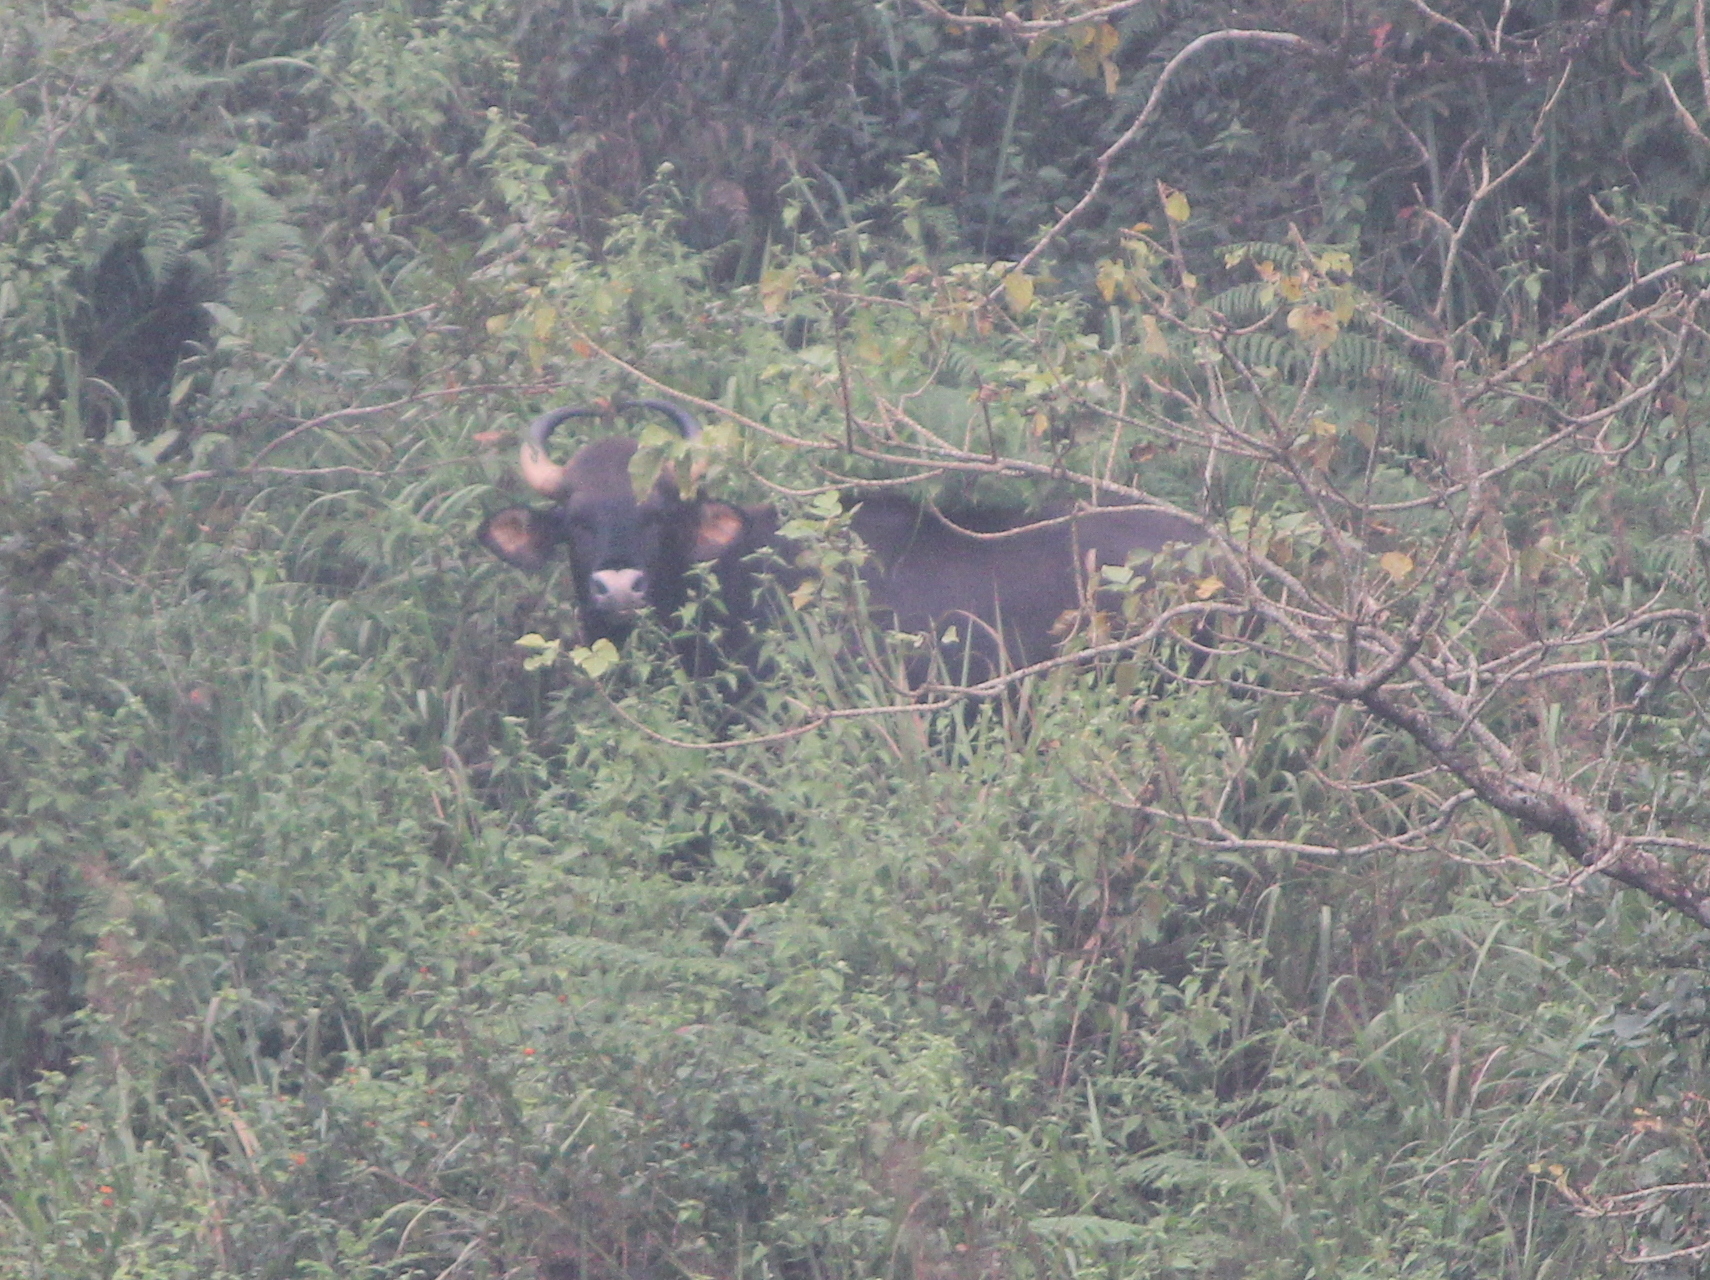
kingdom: Animalia
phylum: Chordata
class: Mammalia
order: Artiodactyla
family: Bovidae
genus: Bos
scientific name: Bos frontalis
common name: Gaur
